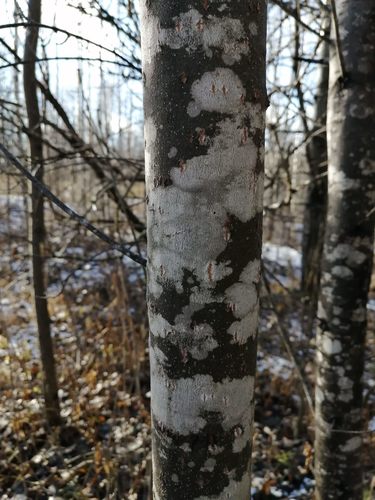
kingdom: Fungi
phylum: Ascomycota
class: Lecanoromycetes
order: Ostropales
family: Phlyctidaceae
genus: Phlyctis
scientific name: Phlyctis argena
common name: Whitewash lichen
